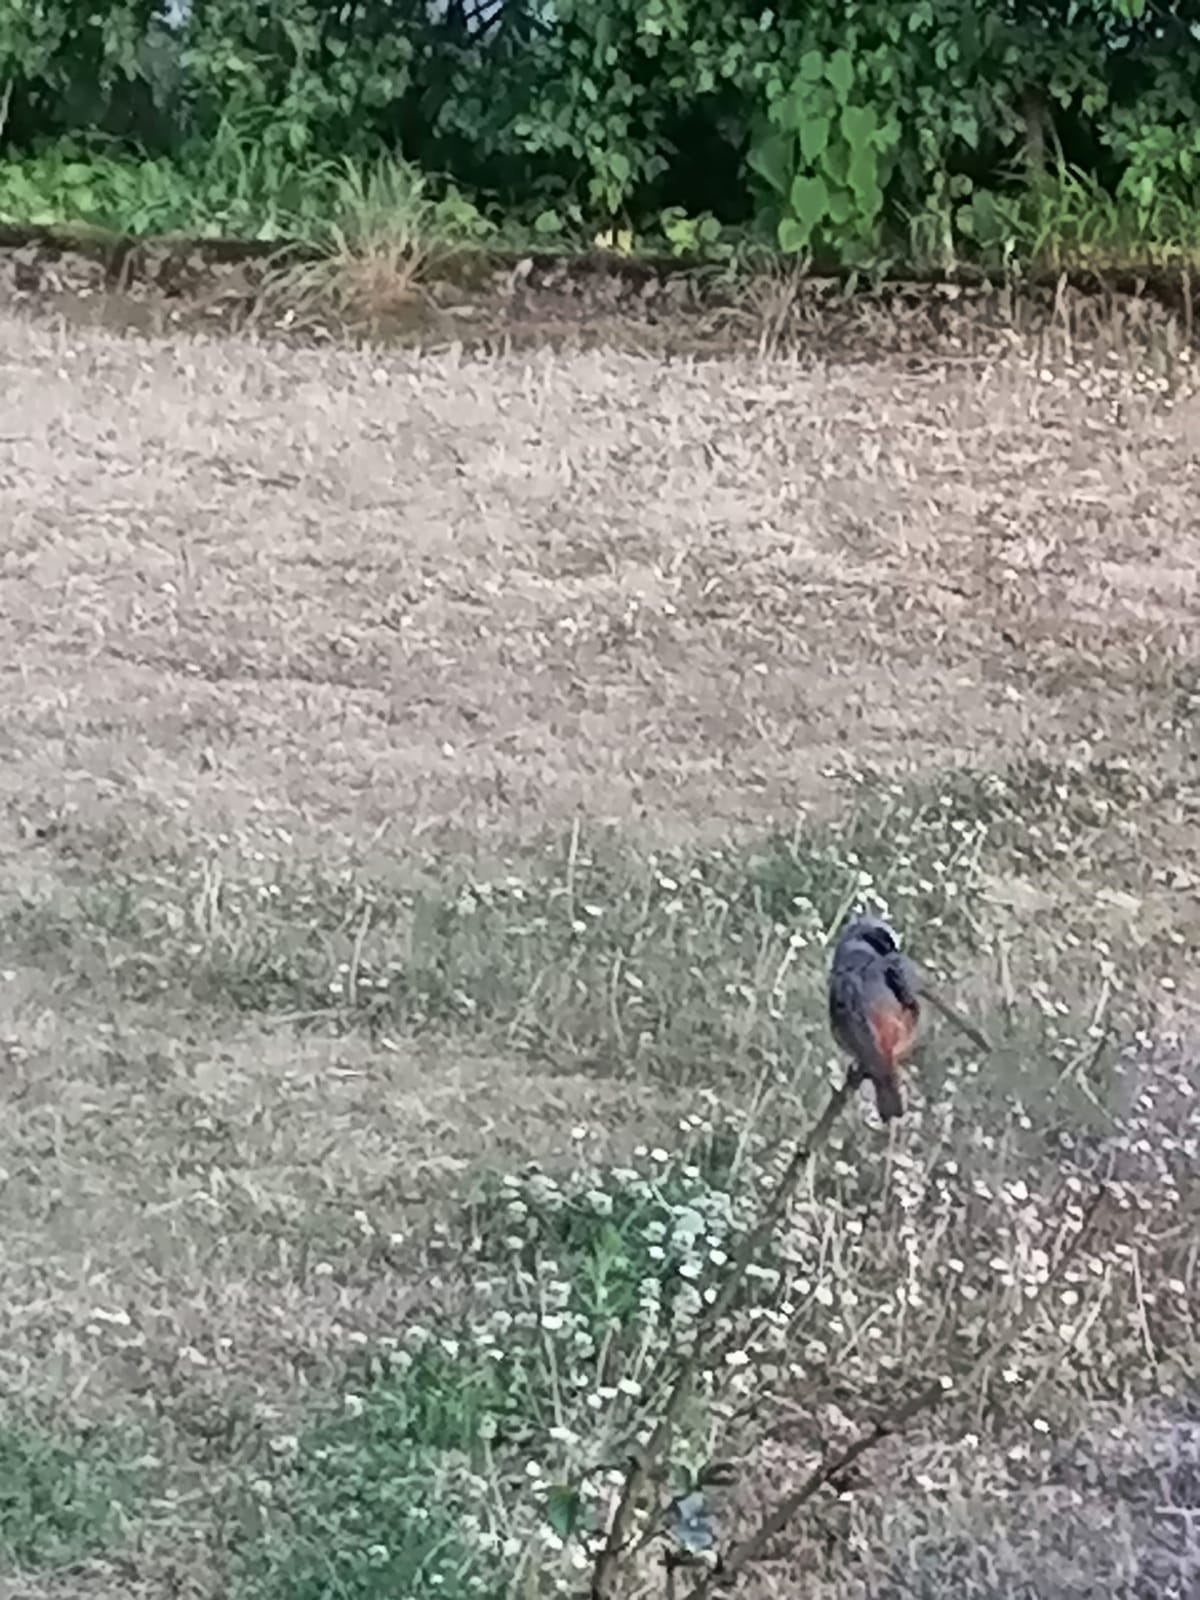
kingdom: Animalia
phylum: Chordata
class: Aves
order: Passeriformes
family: Muscicapidae
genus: Phoenicurus
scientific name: Phoenicurus phoenicurus
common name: Common redstart
